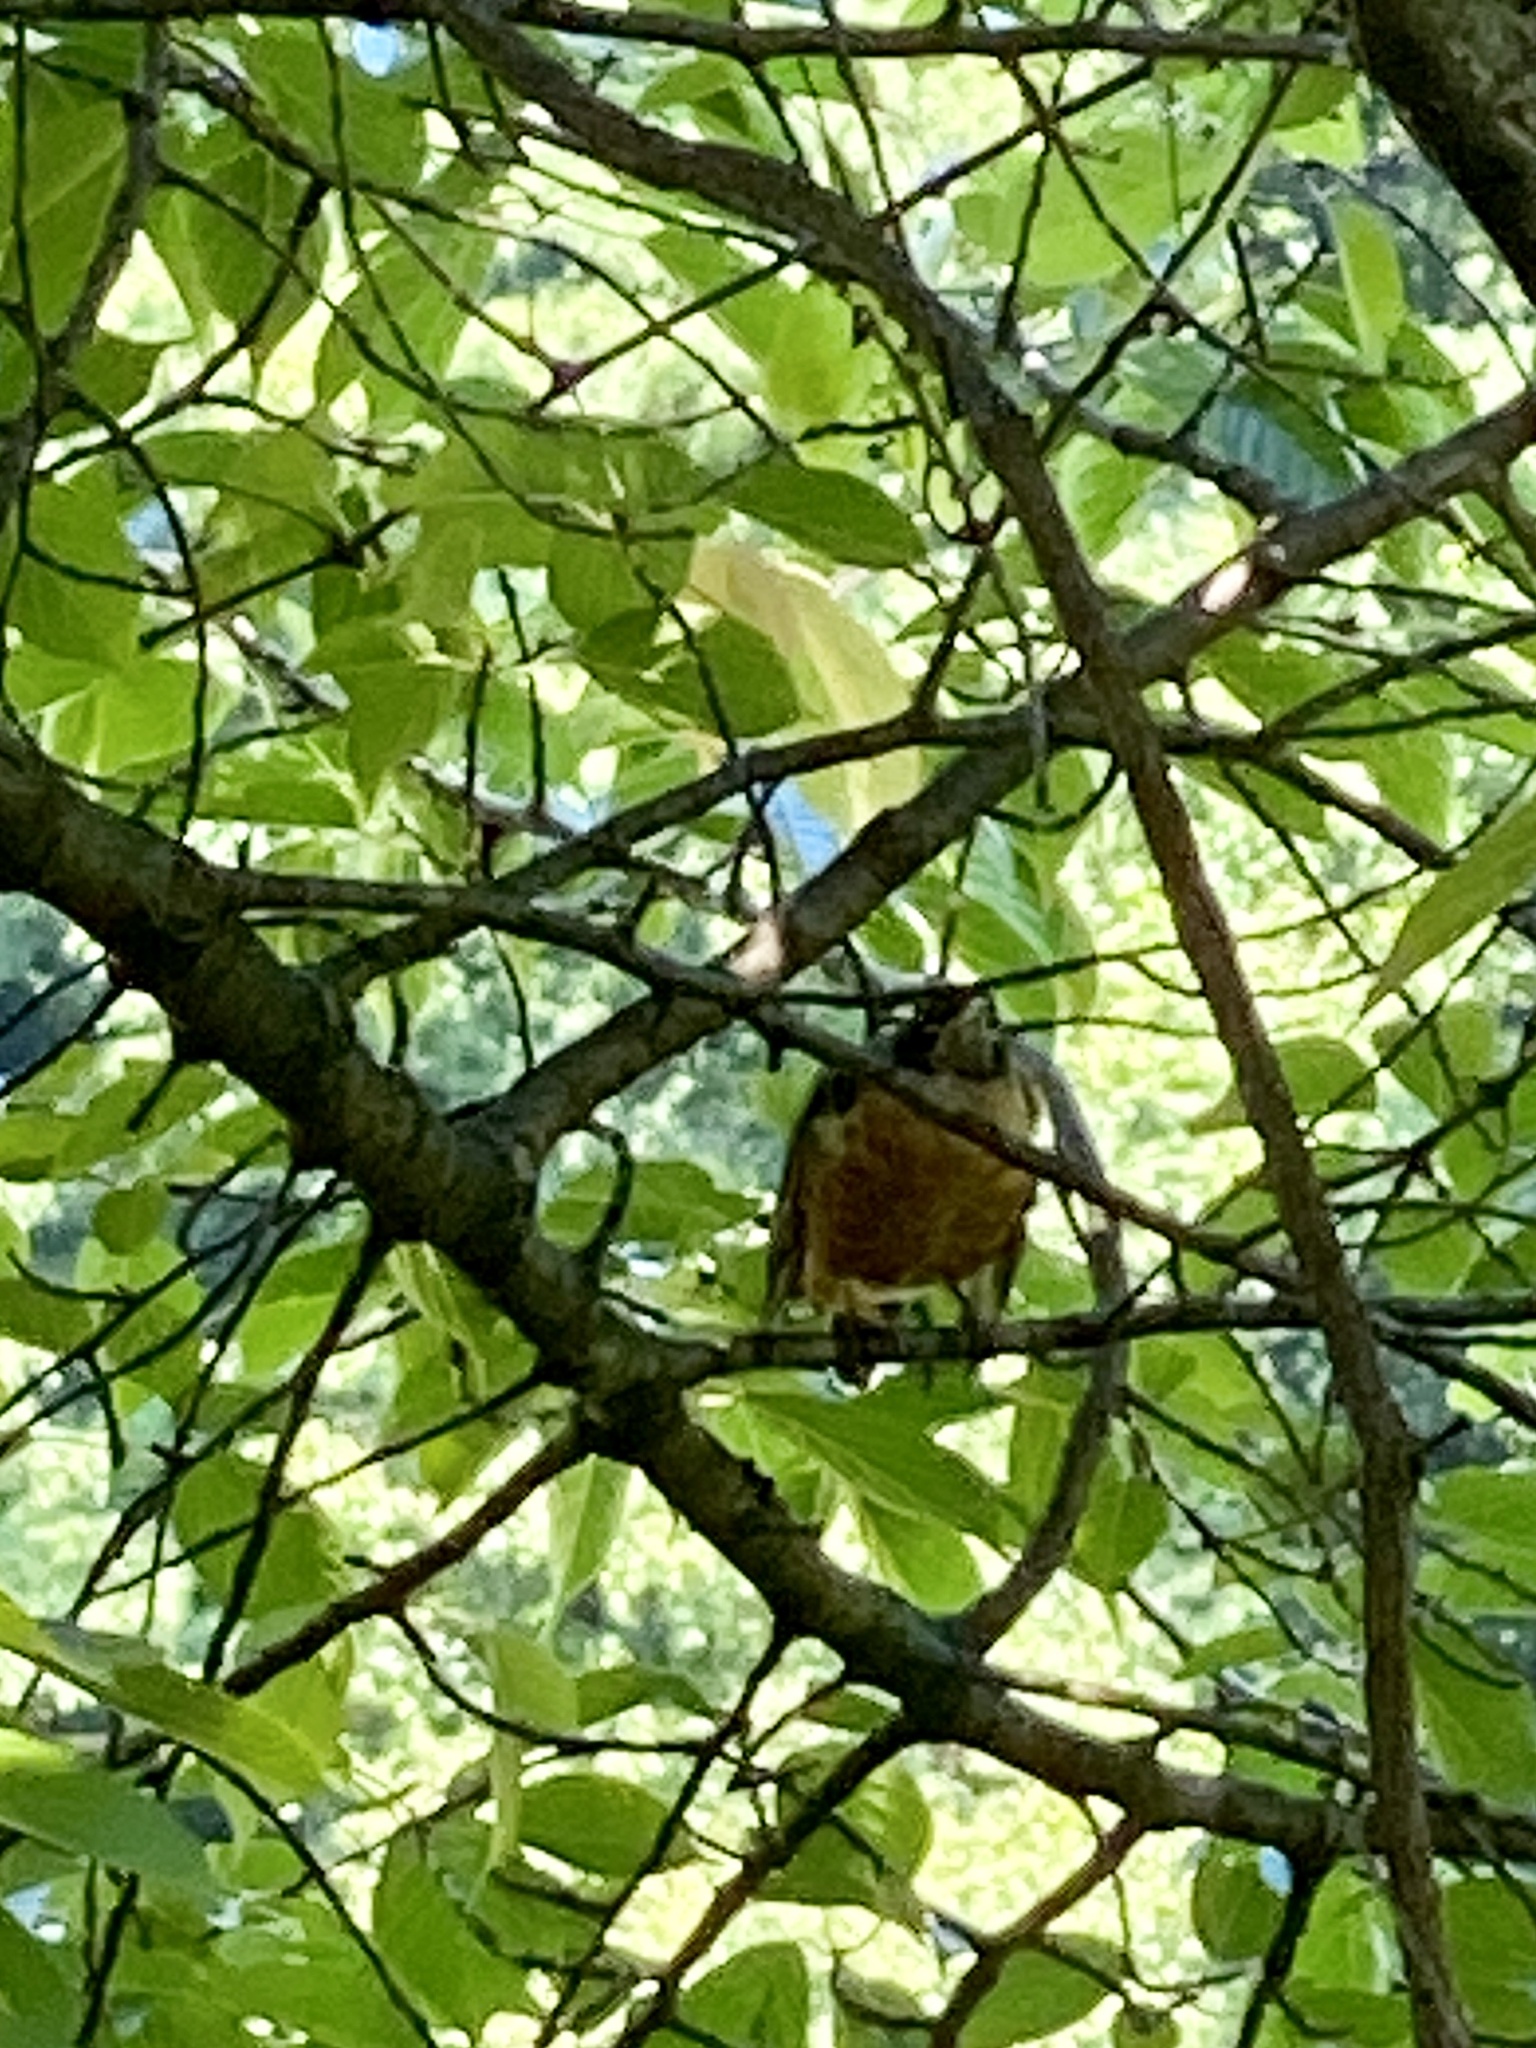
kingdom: Animalia
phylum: Chordata
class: Aves
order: Passeriformes
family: Turdidae
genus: Turdus
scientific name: Turdus migratorius
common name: American robin
